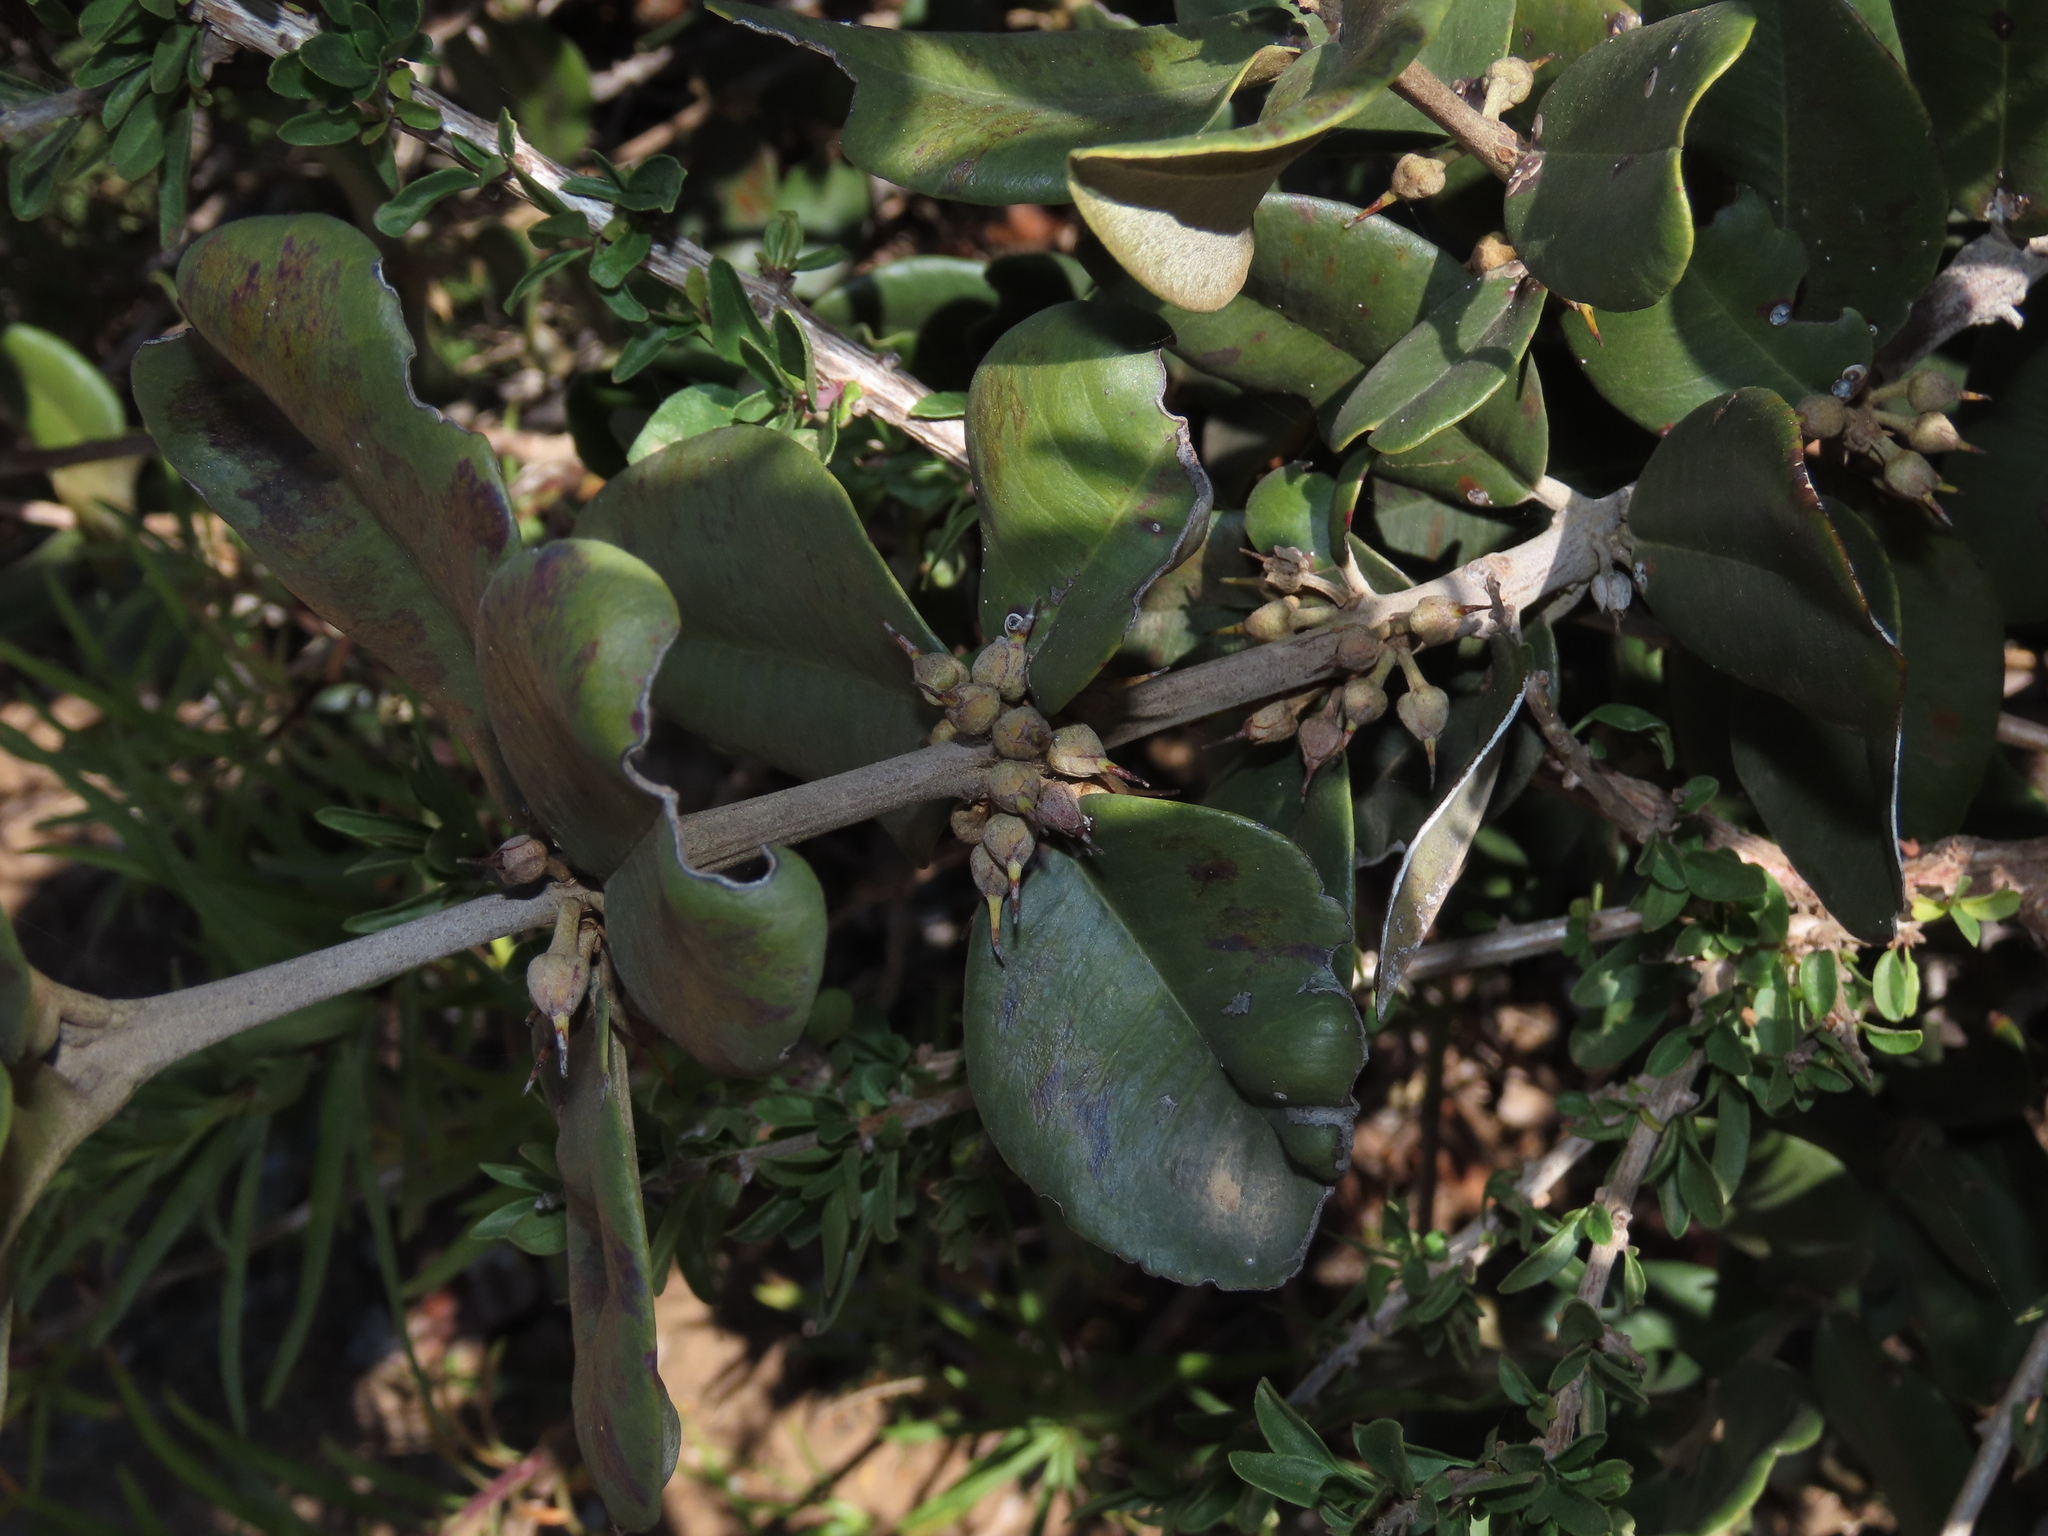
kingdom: Plantae
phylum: Tracheophyta
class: Magnoliopsida
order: Ericales
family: Sapotaceae
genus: Pouteria
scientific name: Pouteria valparadisaea
